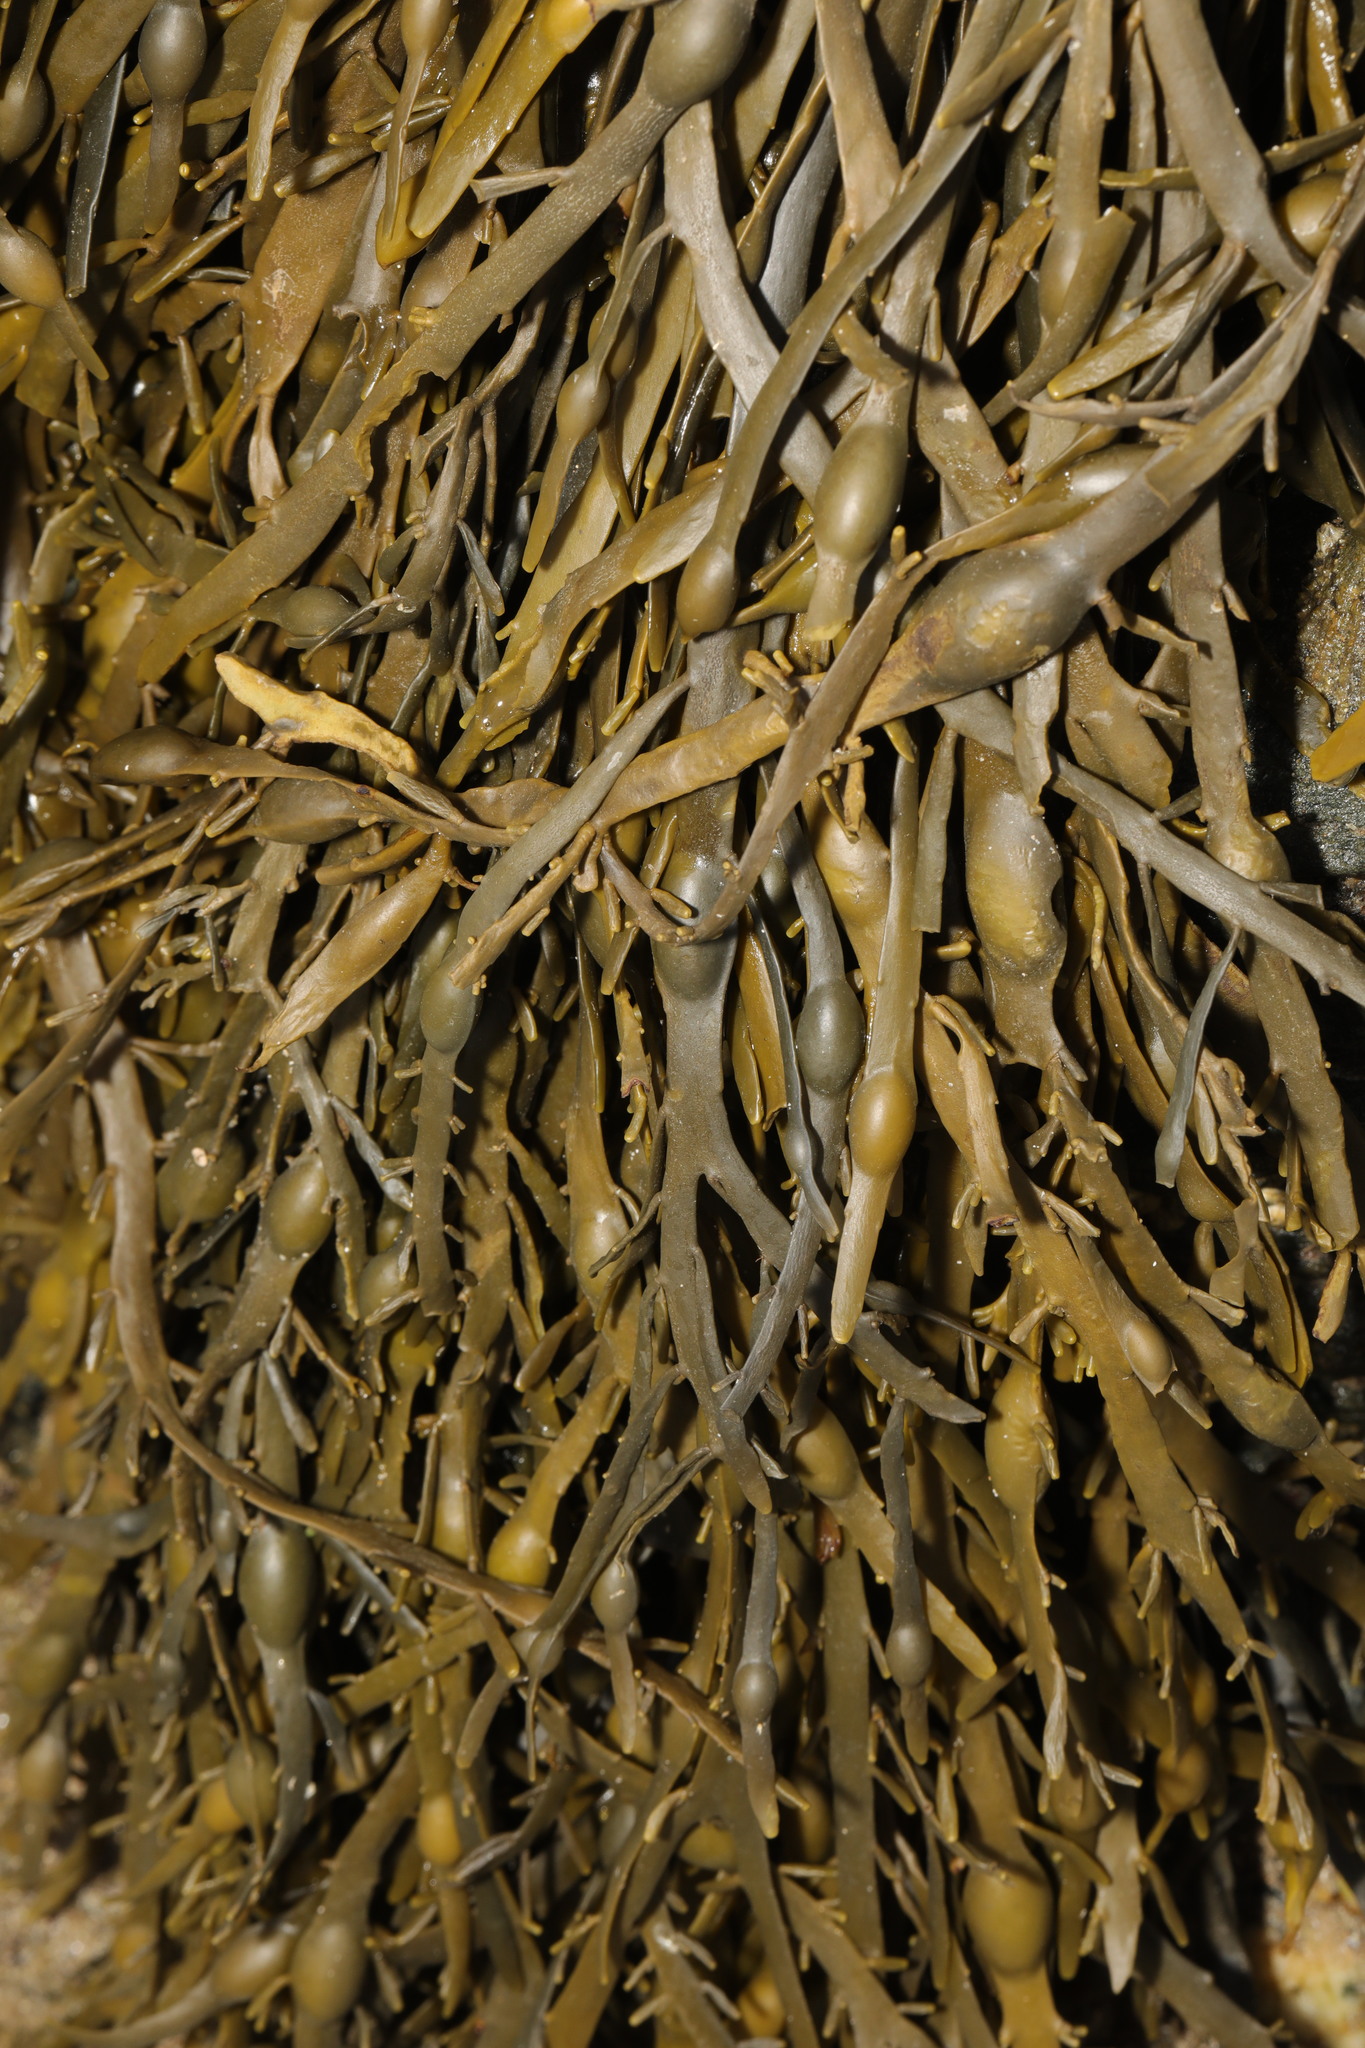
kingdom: Chromista
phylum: Ochrophyta
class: Phaeophyceae
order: Fucales
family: Fucaceae
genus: Ascophyllum
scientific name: Ascophyllum nodosum
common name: Knotted wrack
